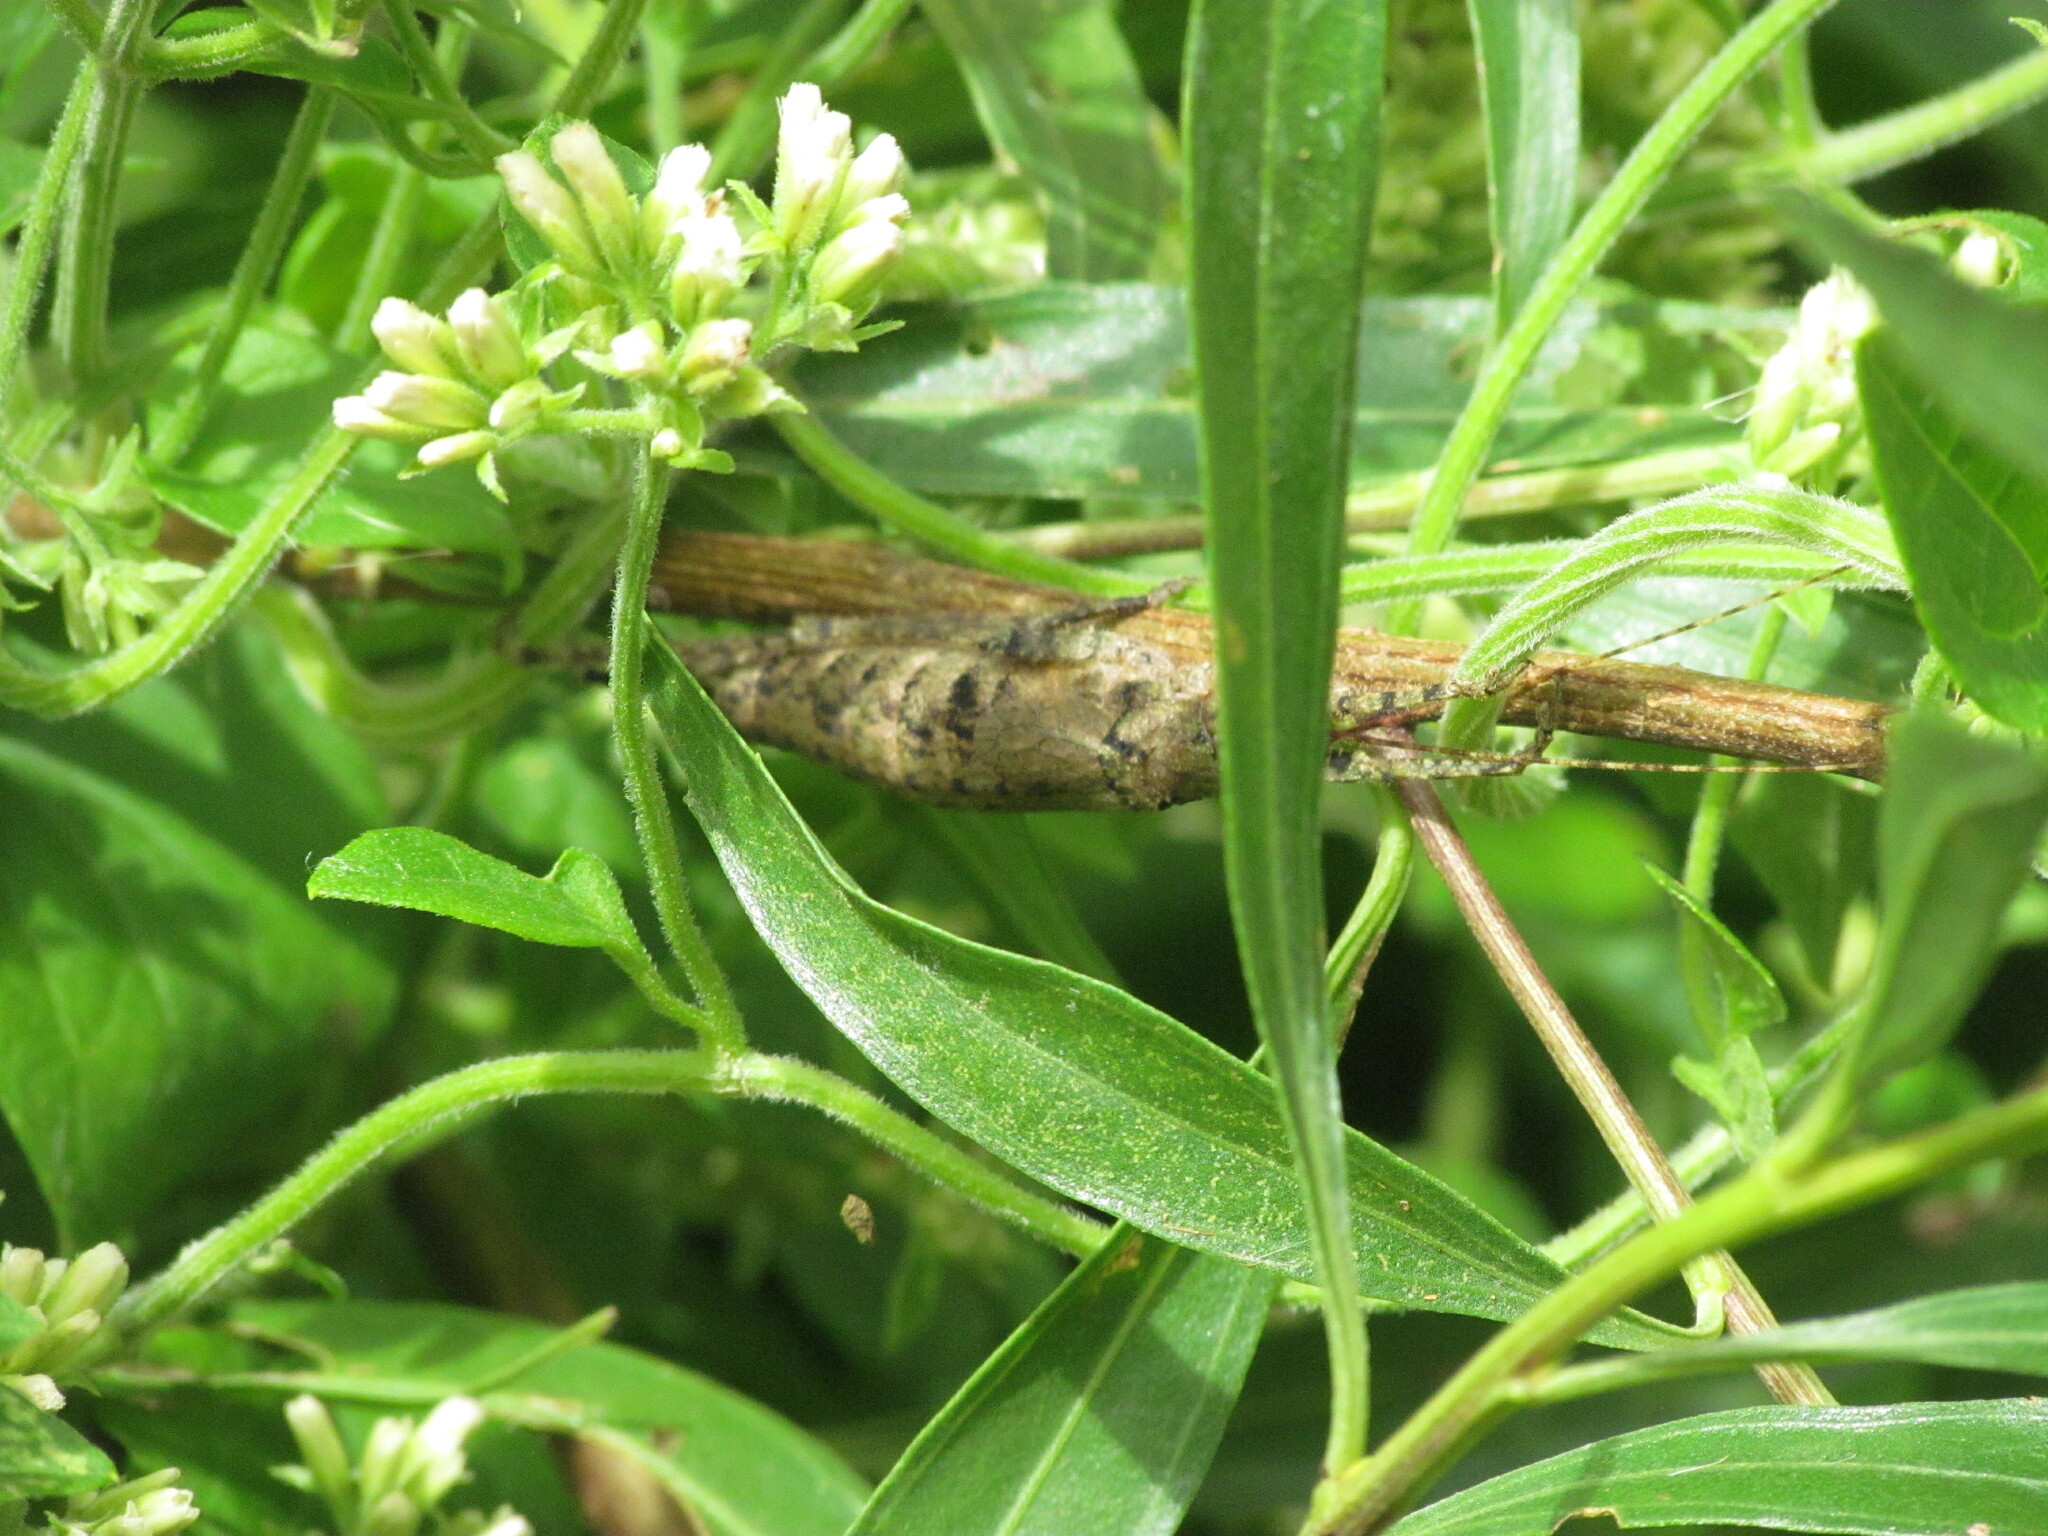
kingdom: Animalia
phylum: Arthropoda
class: Insecta
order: Orthoptera
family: Tettigoniidae
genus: Dasyscelus
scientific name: Dasyscelus normalis
